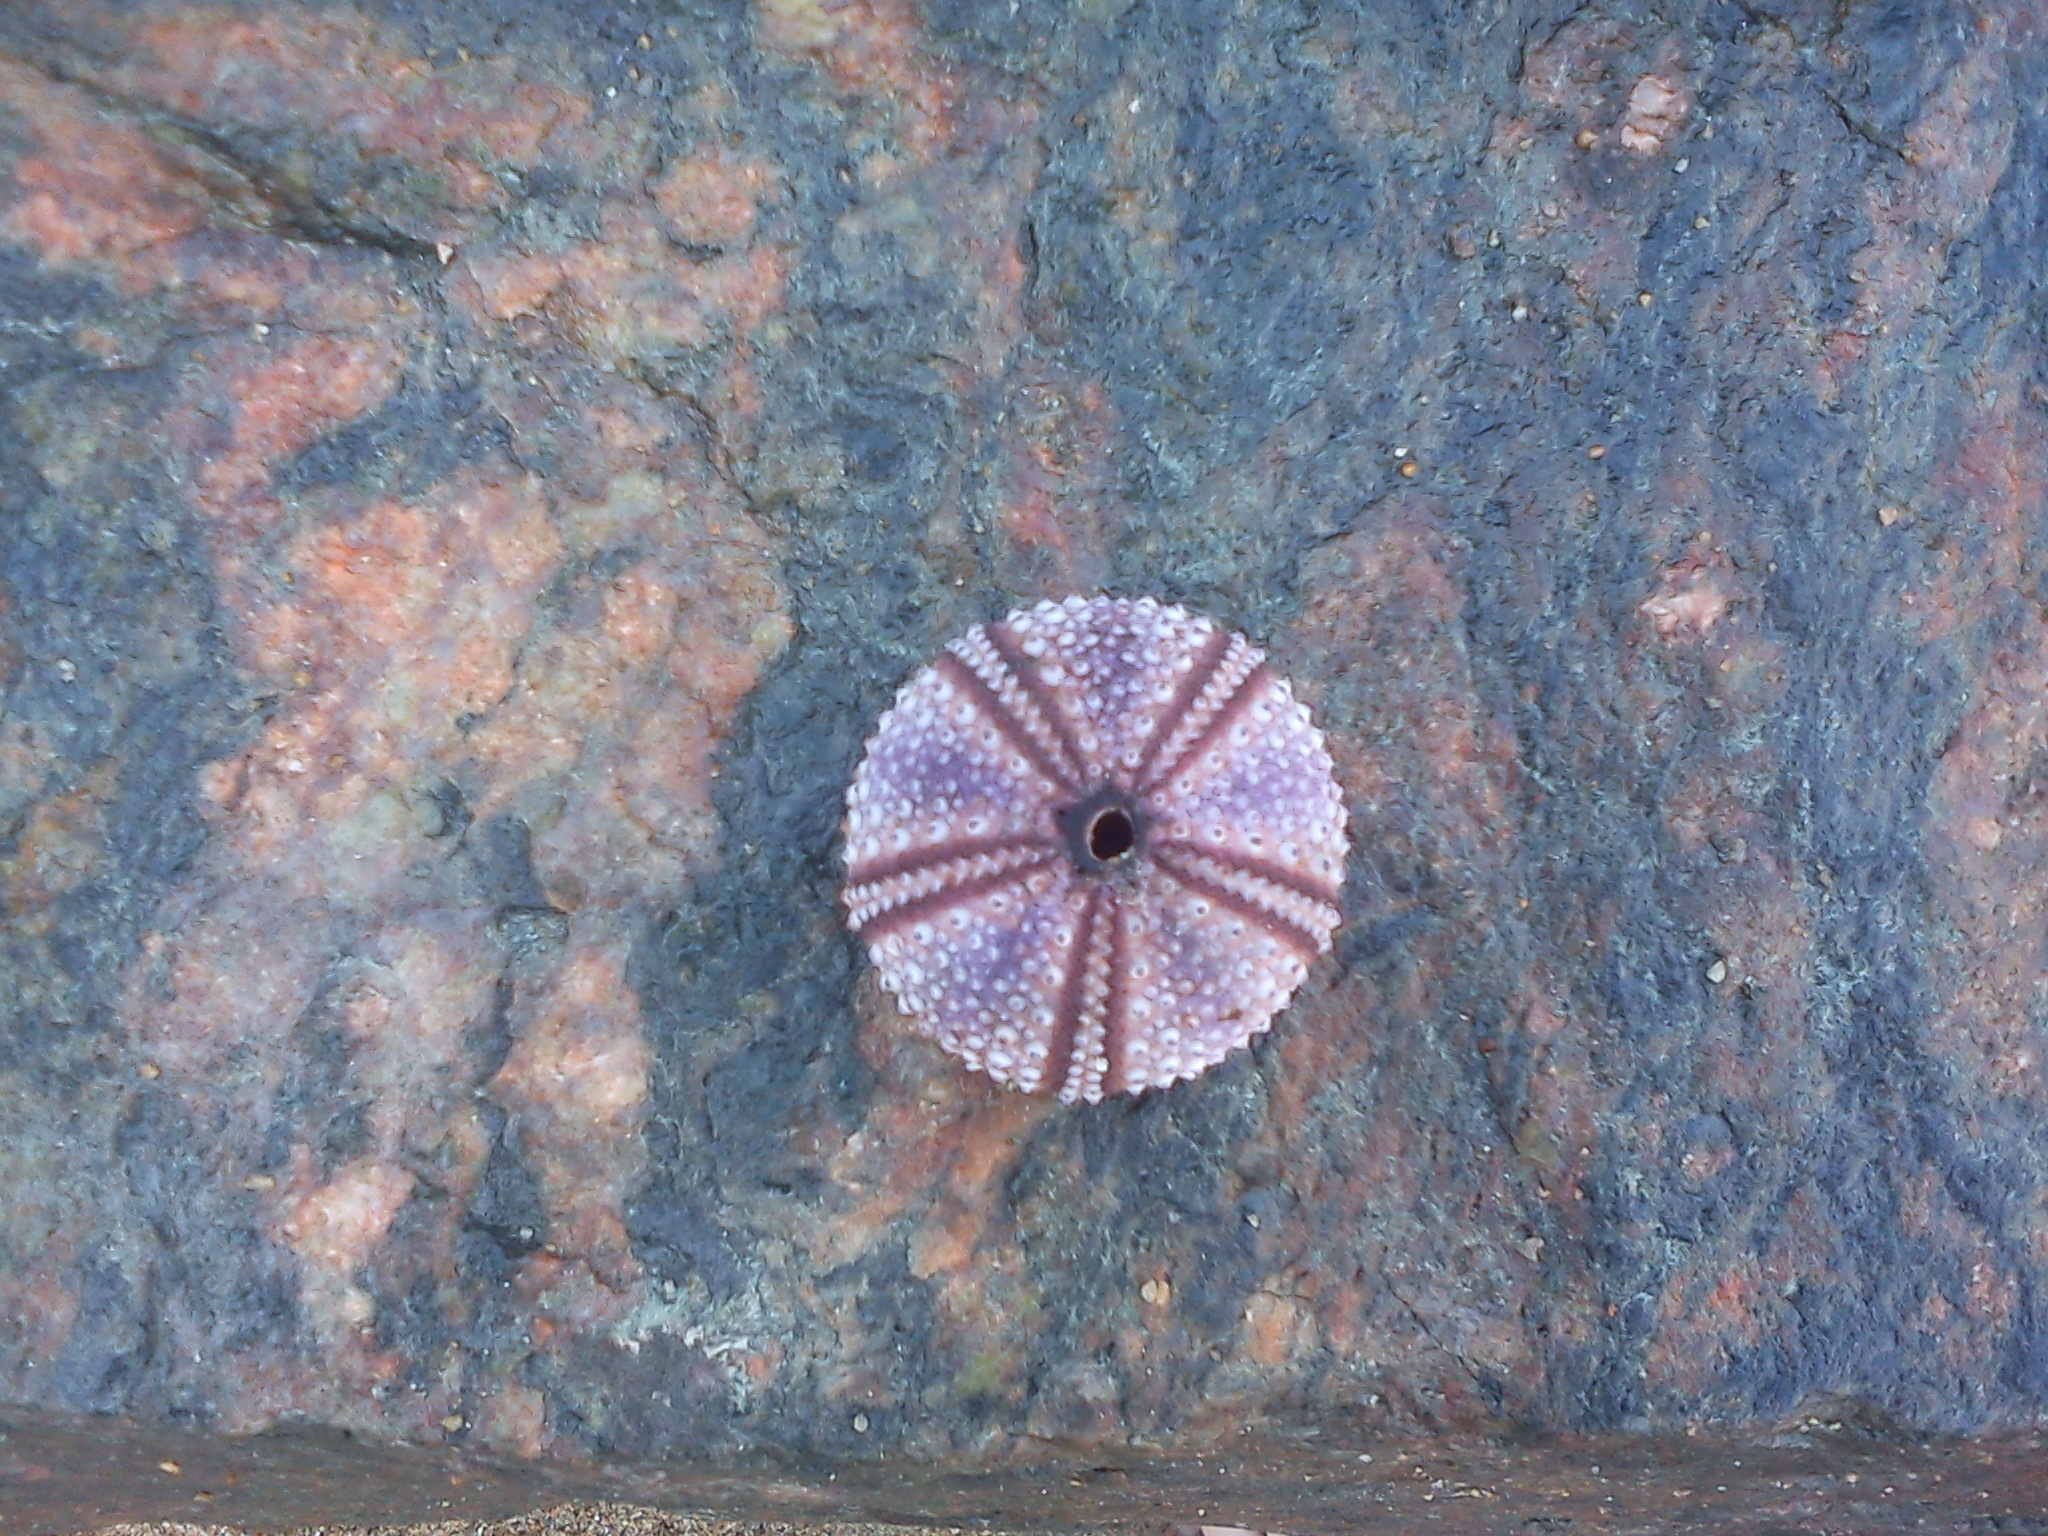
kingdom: Animalia
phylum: Echinodermata
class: Echinoidea
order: Arbacioida
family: Arbaciidae
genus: Tetrapygus
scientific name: Tetrapygus niger
